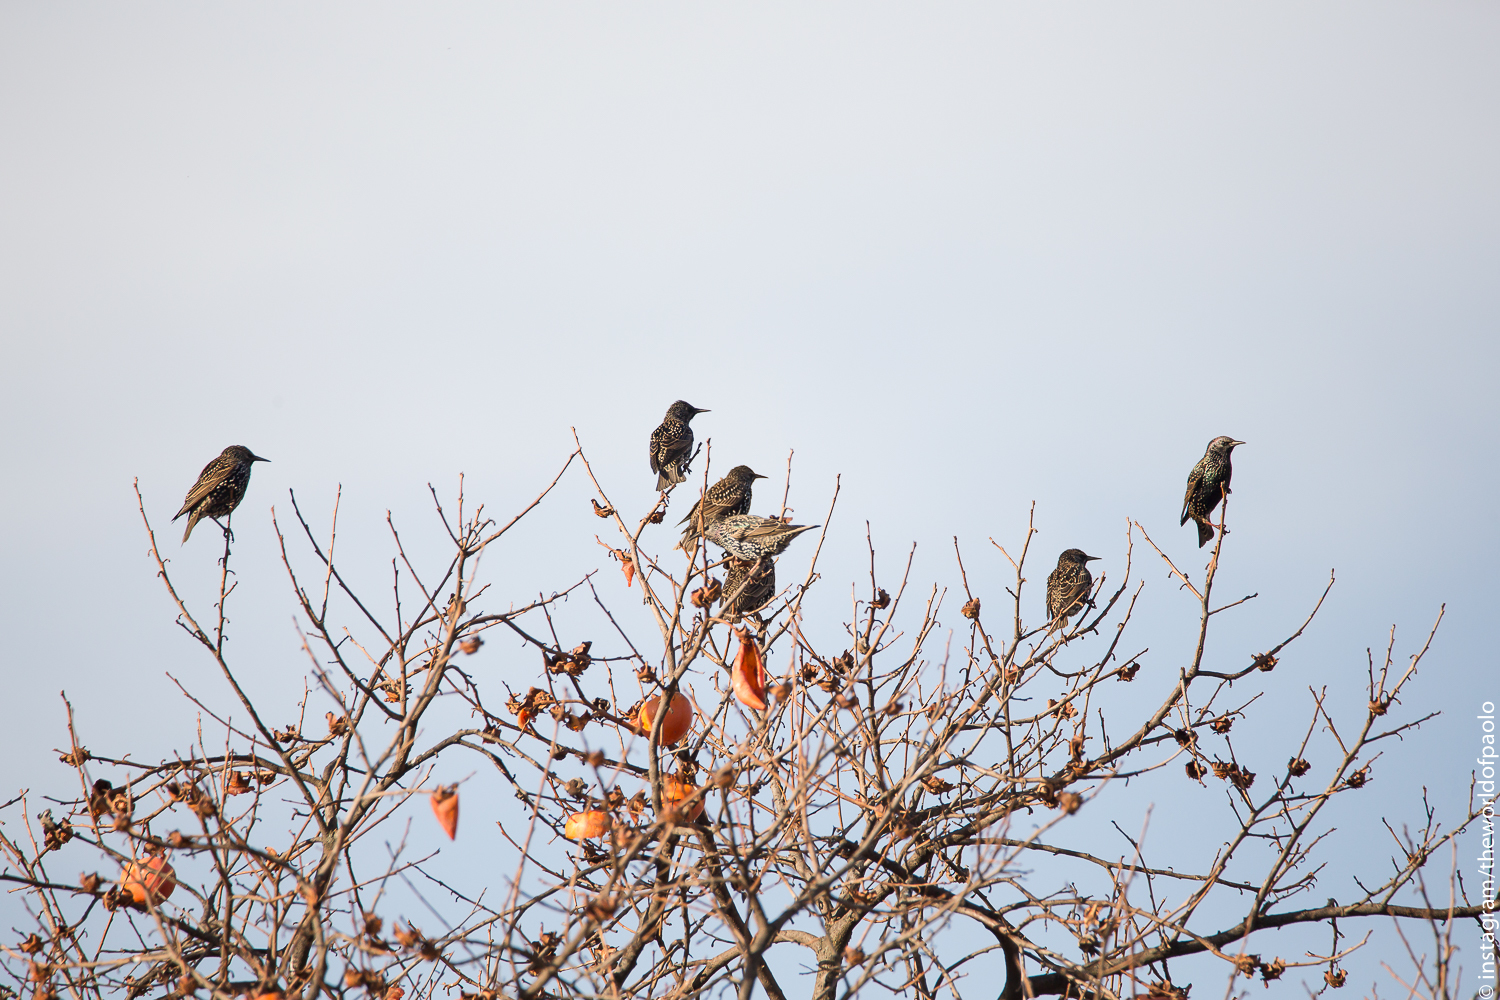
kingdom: Animalia
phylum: Chordata
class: Aves
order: Passeriformes
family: Sturnidae
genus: Sturnus
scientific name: Sturnus vulgaris
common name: Common starling
